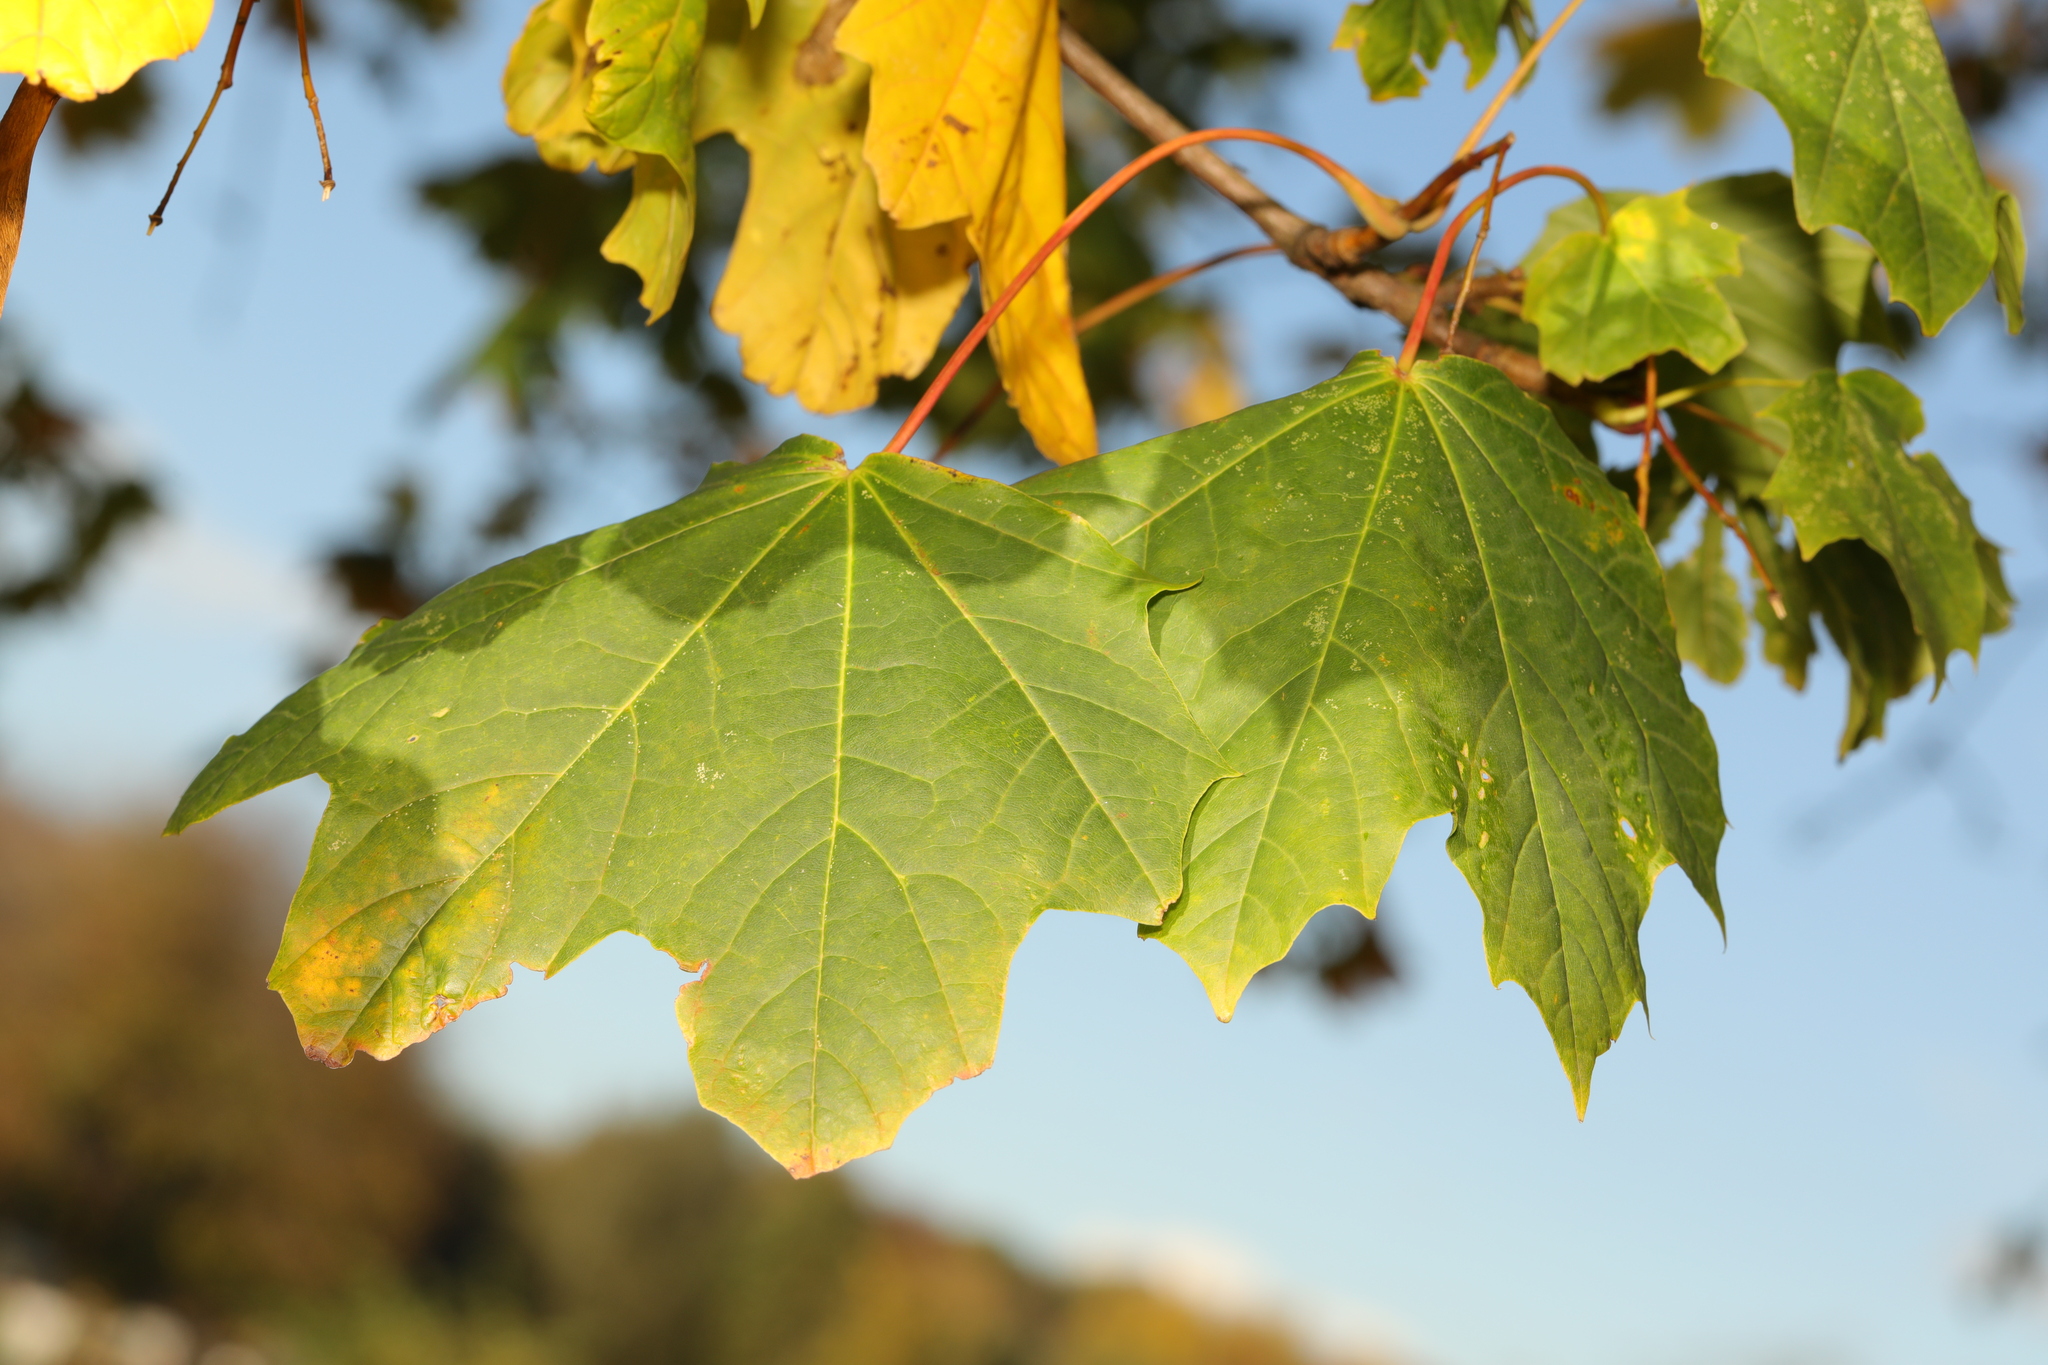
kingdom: Plantae
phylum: Tracheophyta
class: Magnoliopsida
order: Sapindales
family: Sapindaceae
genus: Acer
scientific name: Acer platanoides
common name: Norway maple
